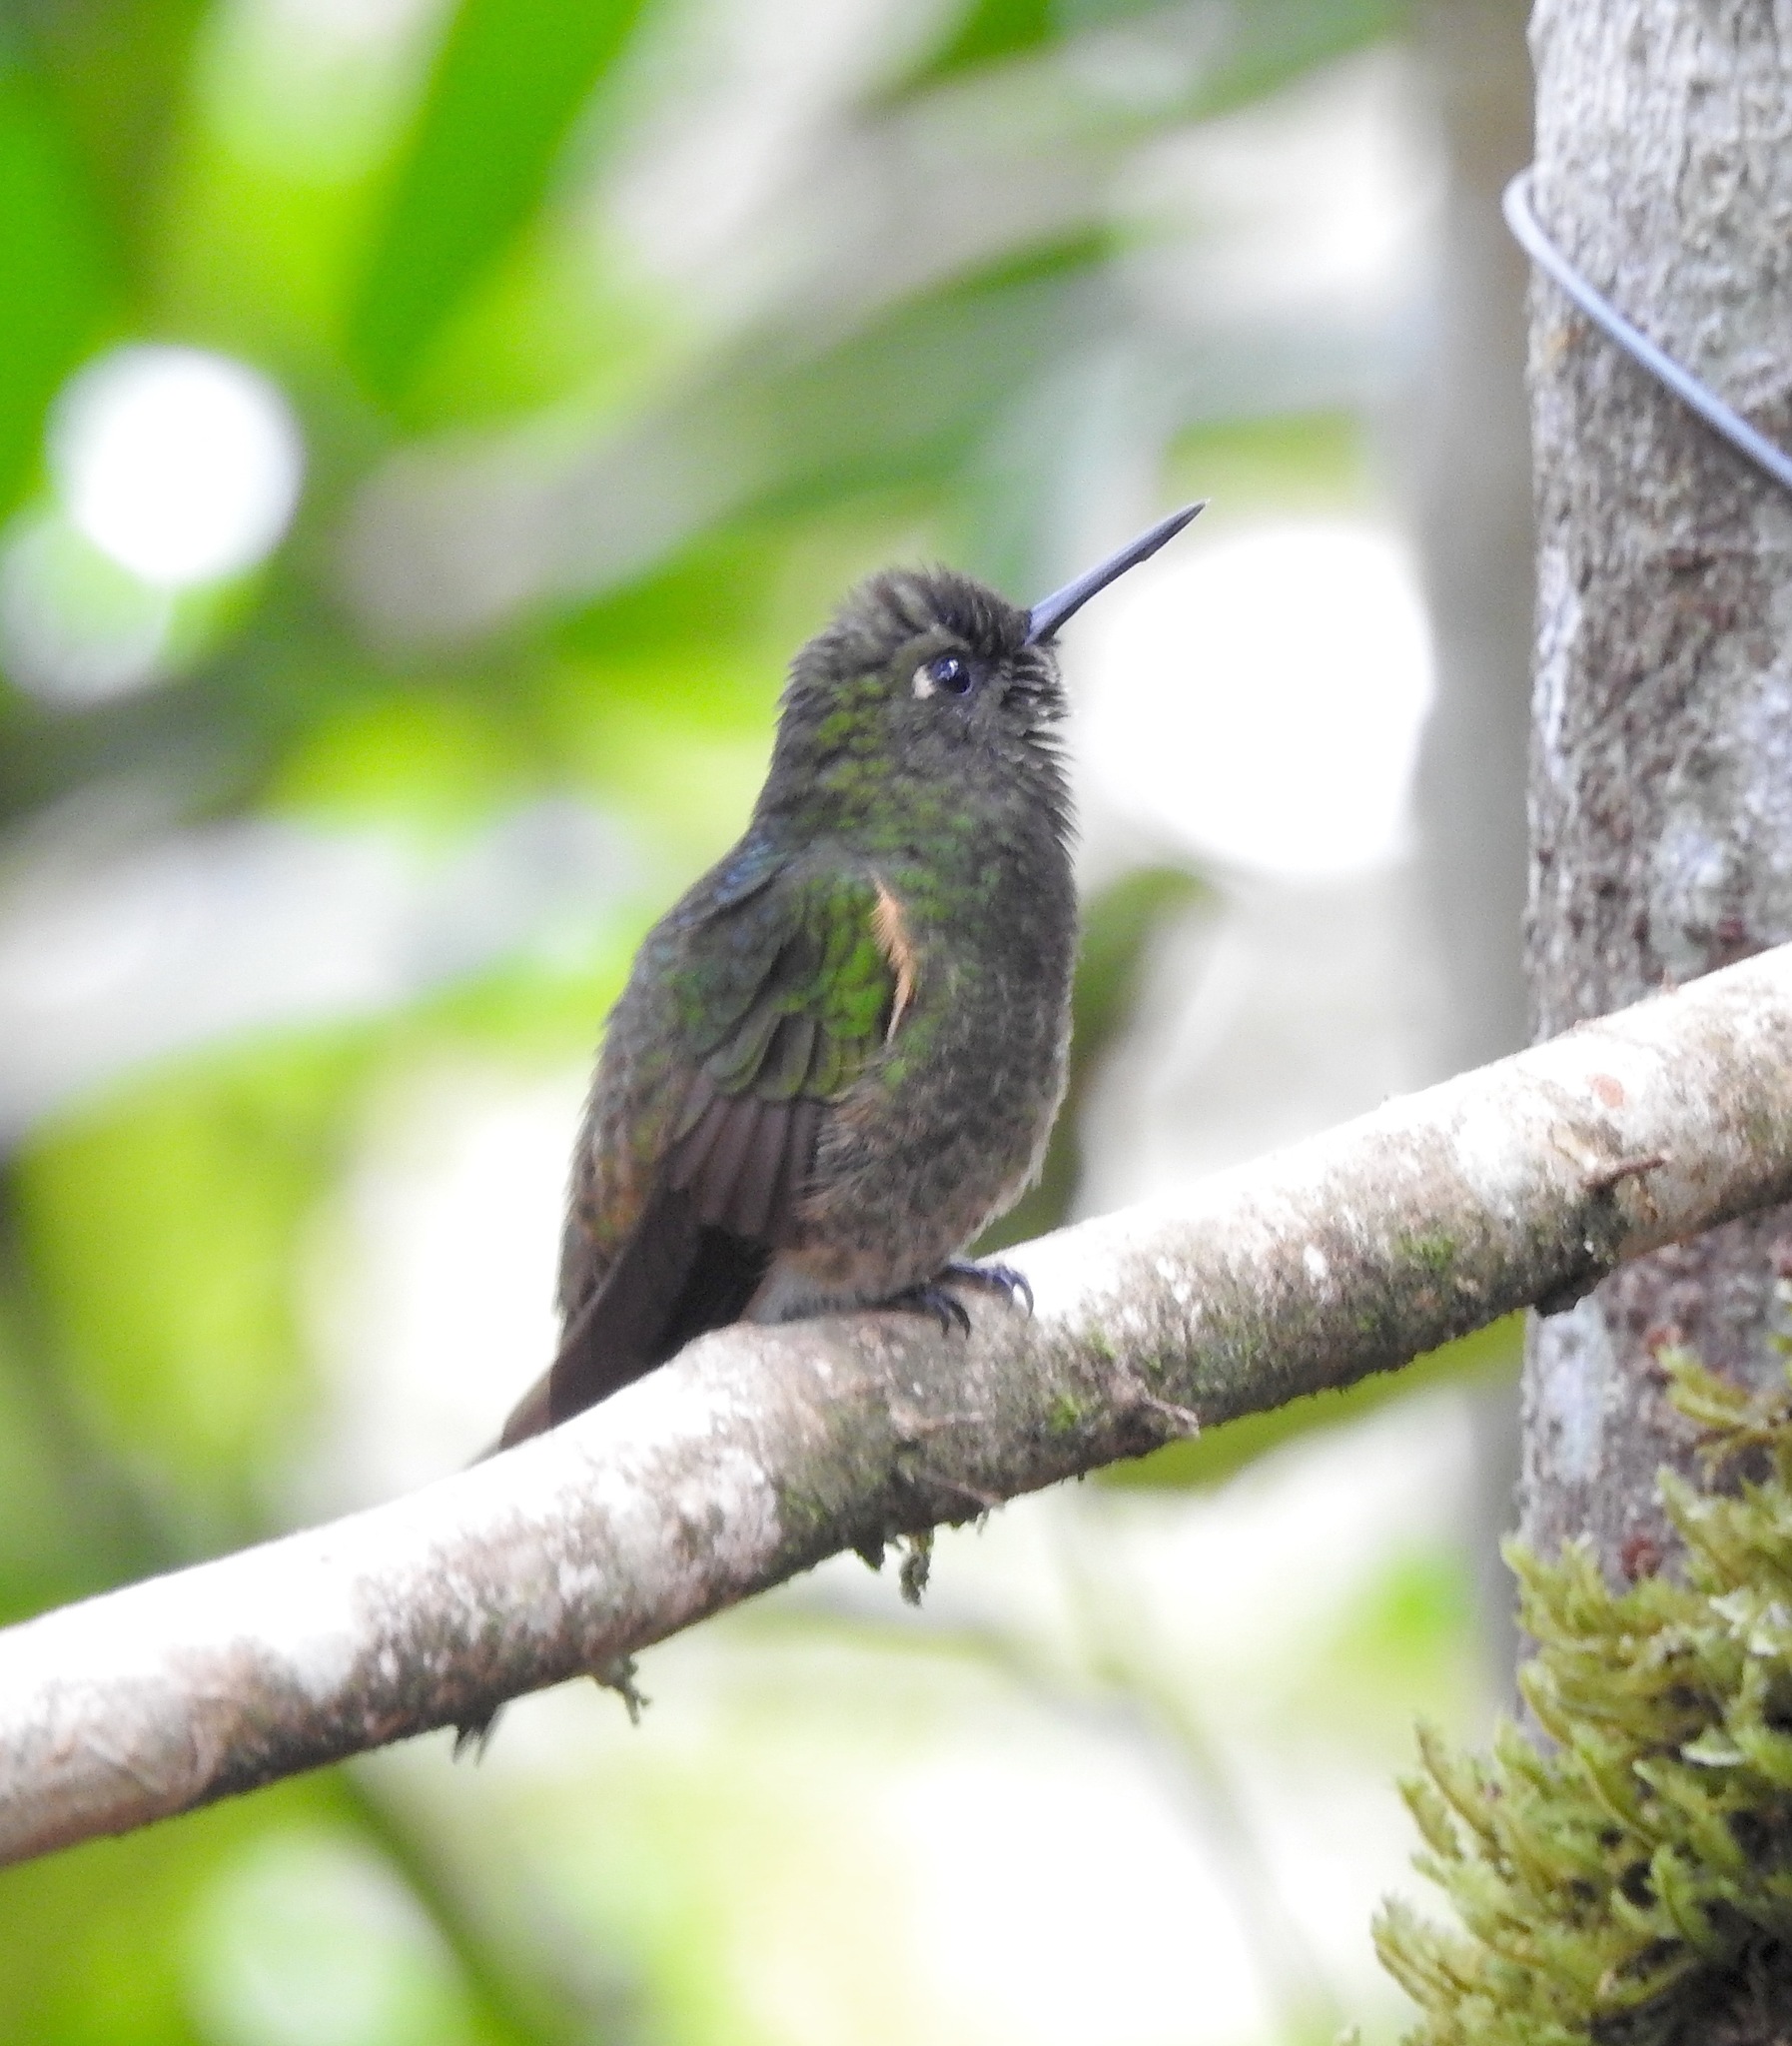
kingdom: Animalia
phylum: Chordata
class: Aves
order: Apodiformes
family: Trochilidae
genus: Boissonneaua
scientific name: Boissonneaua flavescens
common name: Buff-tailed coronet
